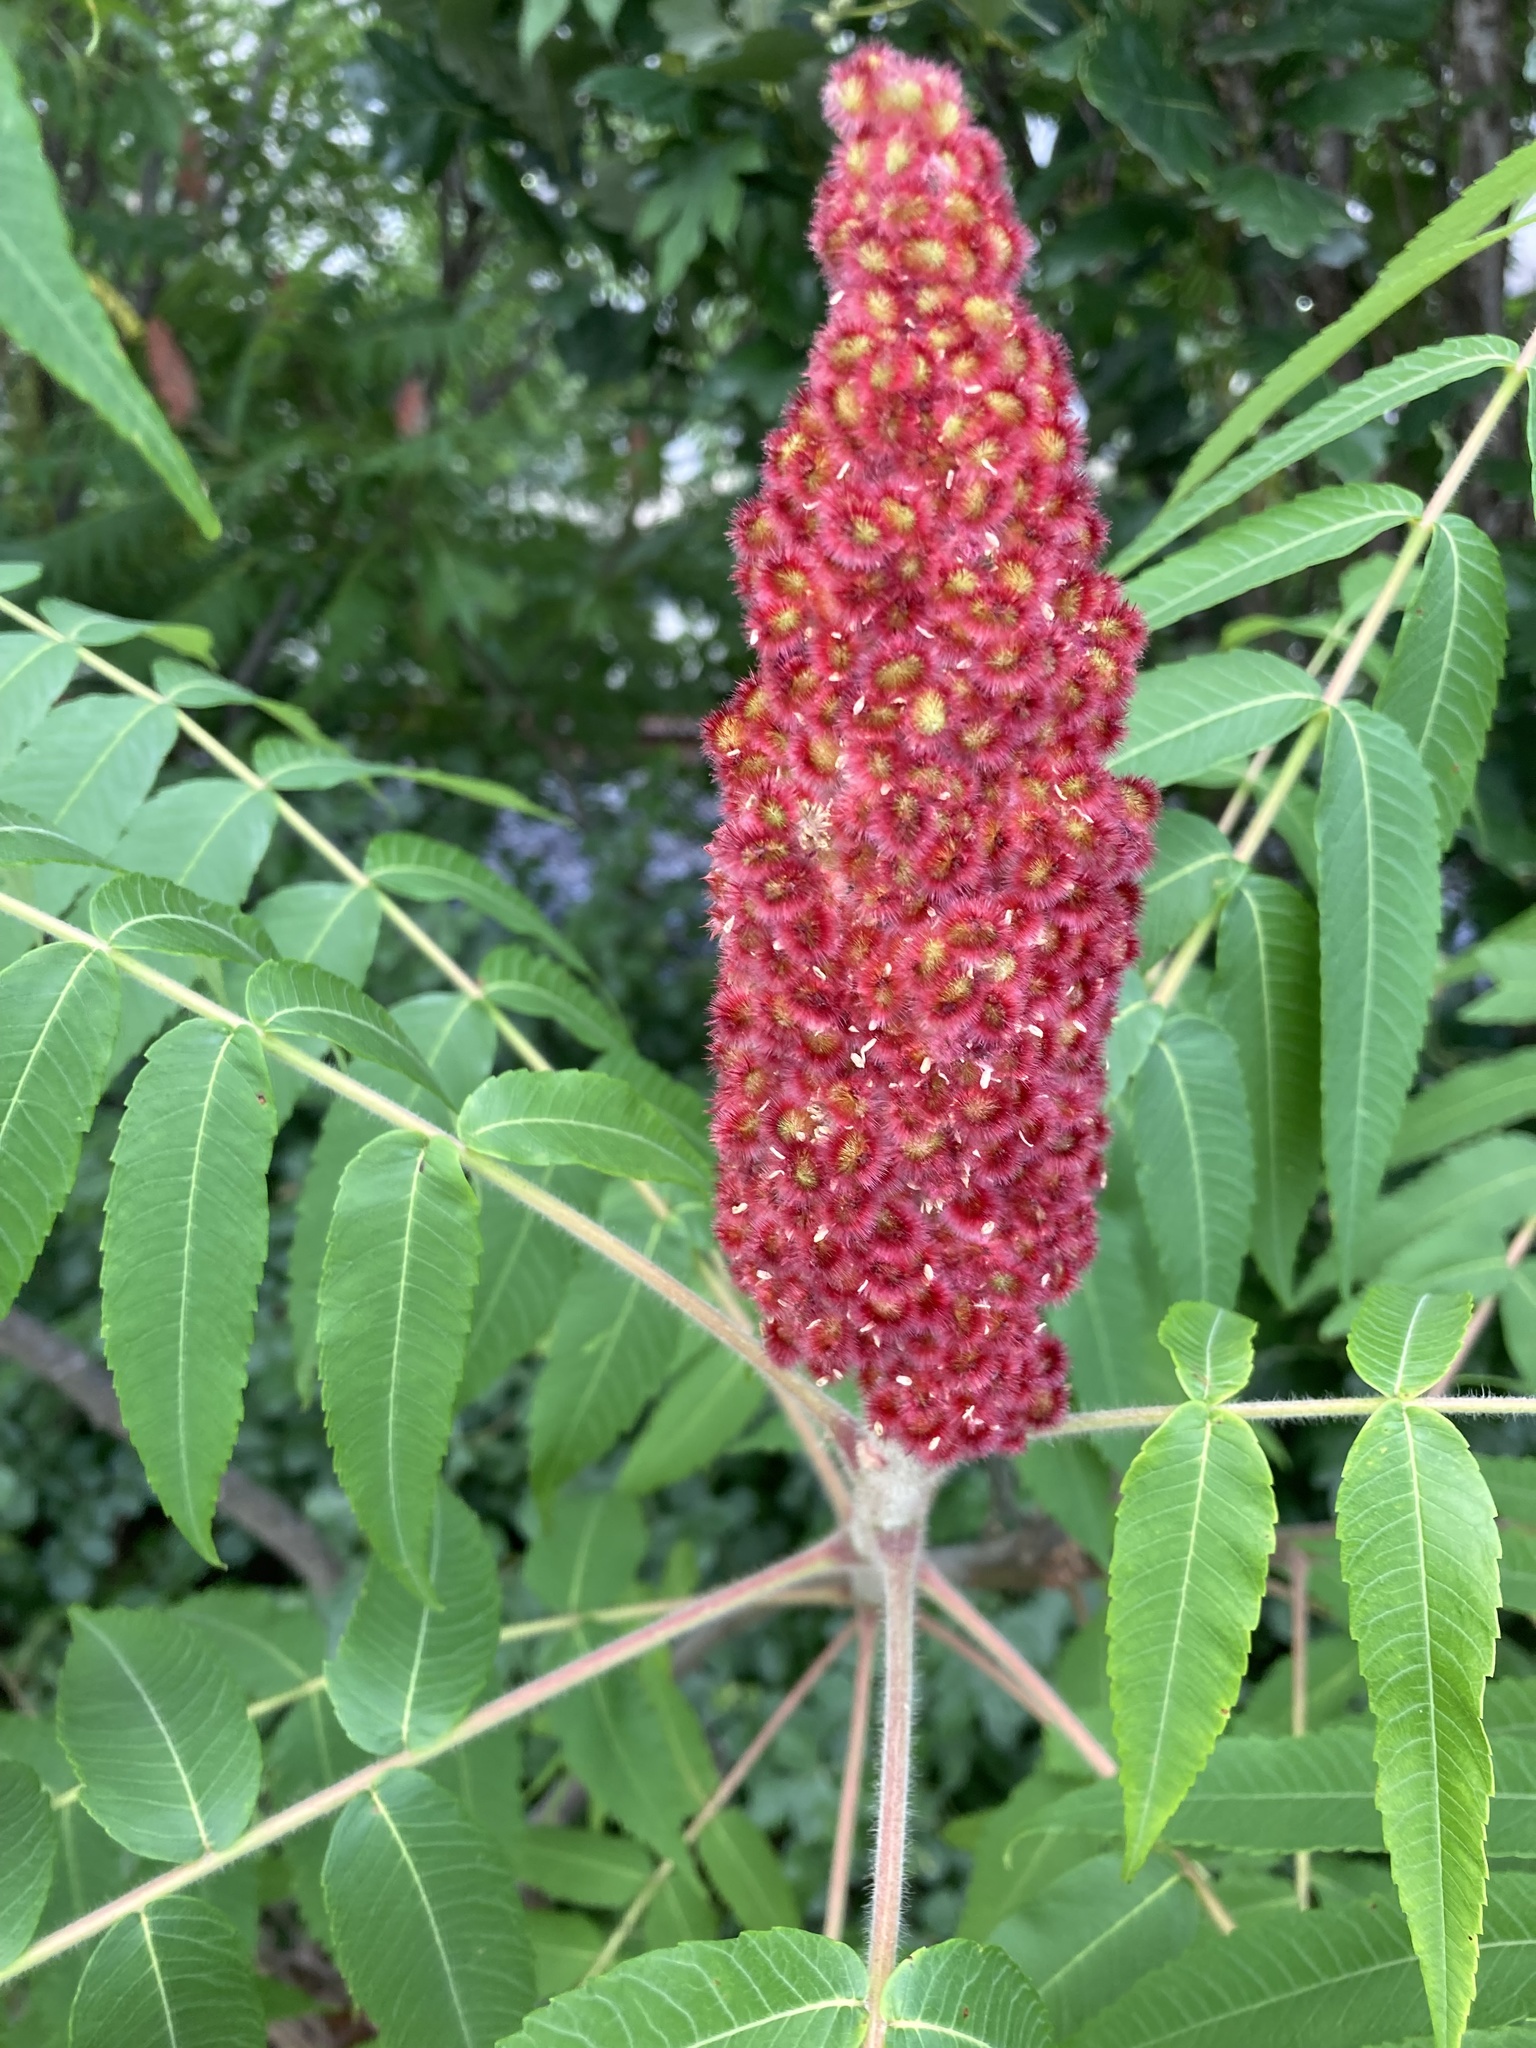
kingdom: Plantae
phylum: Tracheophyta
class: Magnoliopsida
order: Sapindales
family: Anacardiaceae
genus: Rhus
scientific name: Rhus typhina
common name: Staghorn sumac
